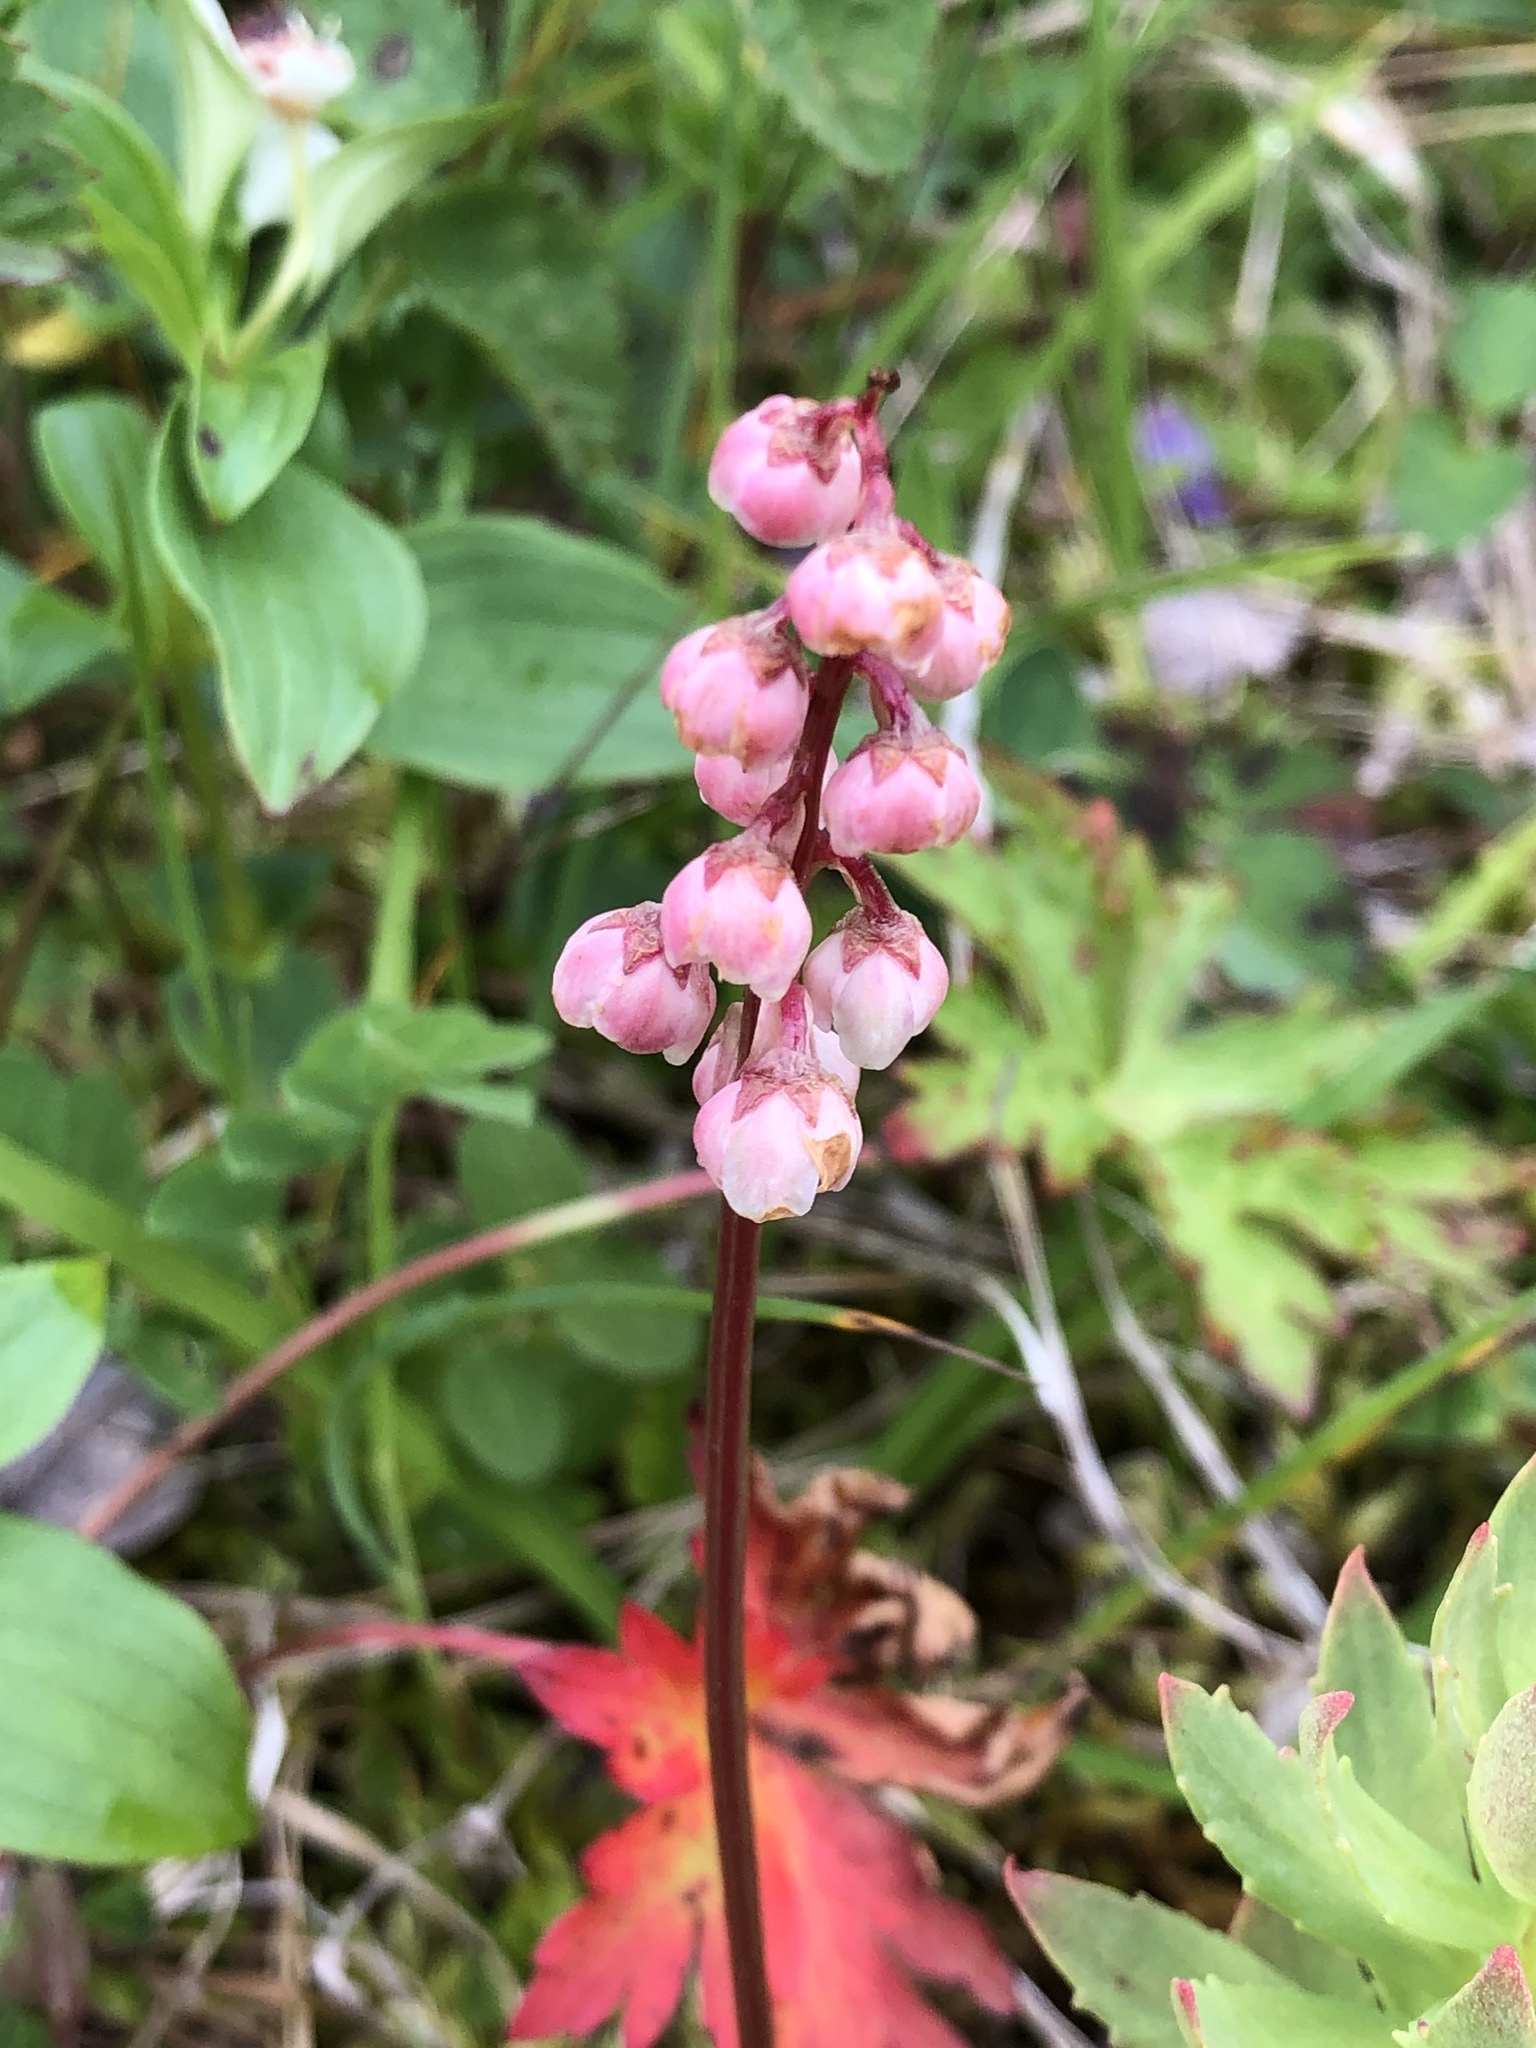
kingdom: Plantae
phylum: Tracheophyta
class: Magnoliopsida
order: Ericales
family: Ericaceae
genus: Pyrola
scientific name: Pyrola minor
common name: Common wintergreen
